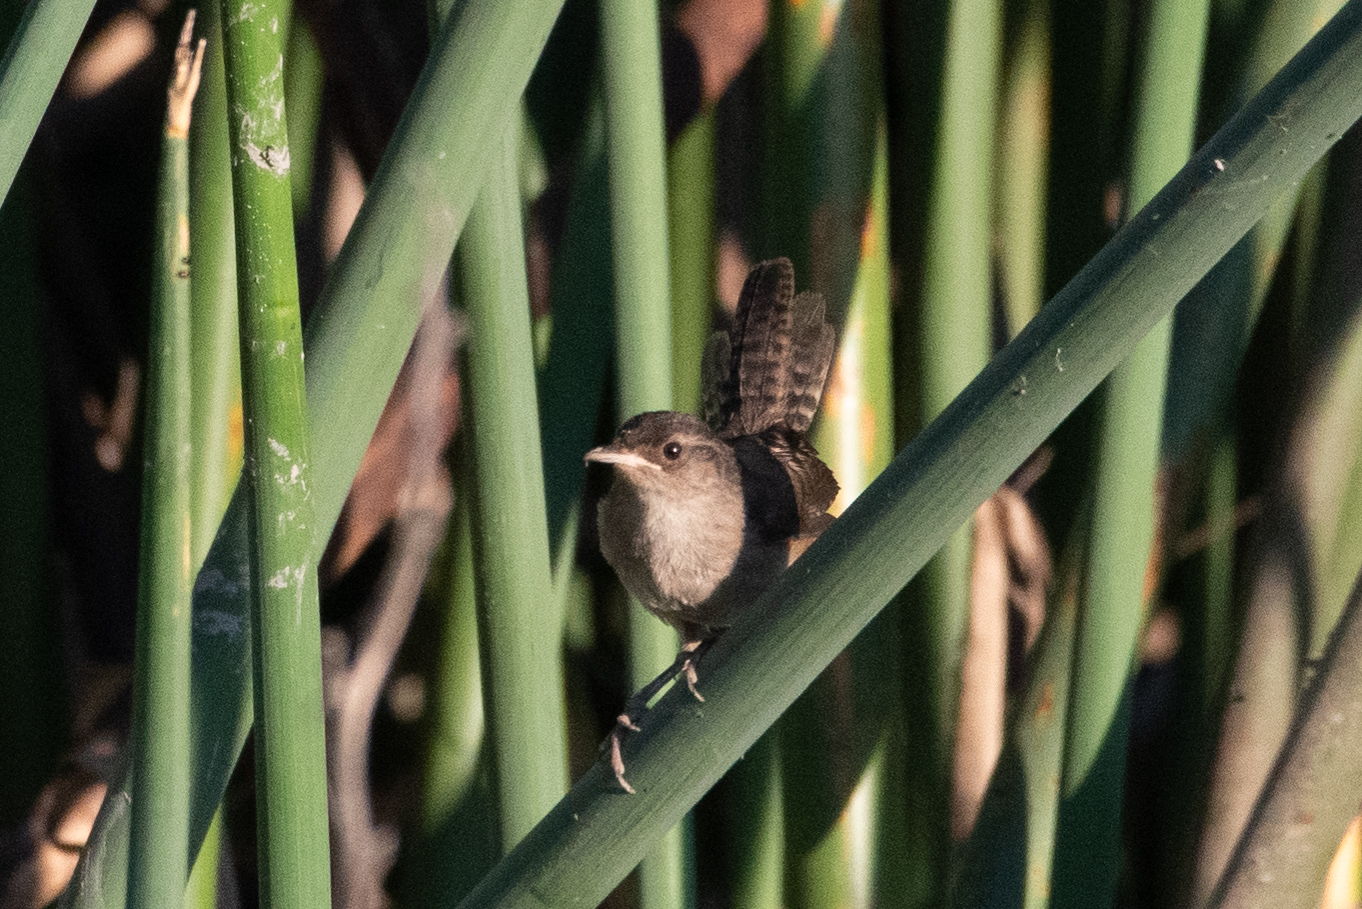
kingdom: Animalia
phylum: Chordata
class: Aves
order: Passeriformes
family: Troglodytidae
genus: Cistothorus
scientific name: Cistothorus palustris
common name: Marsh wren
